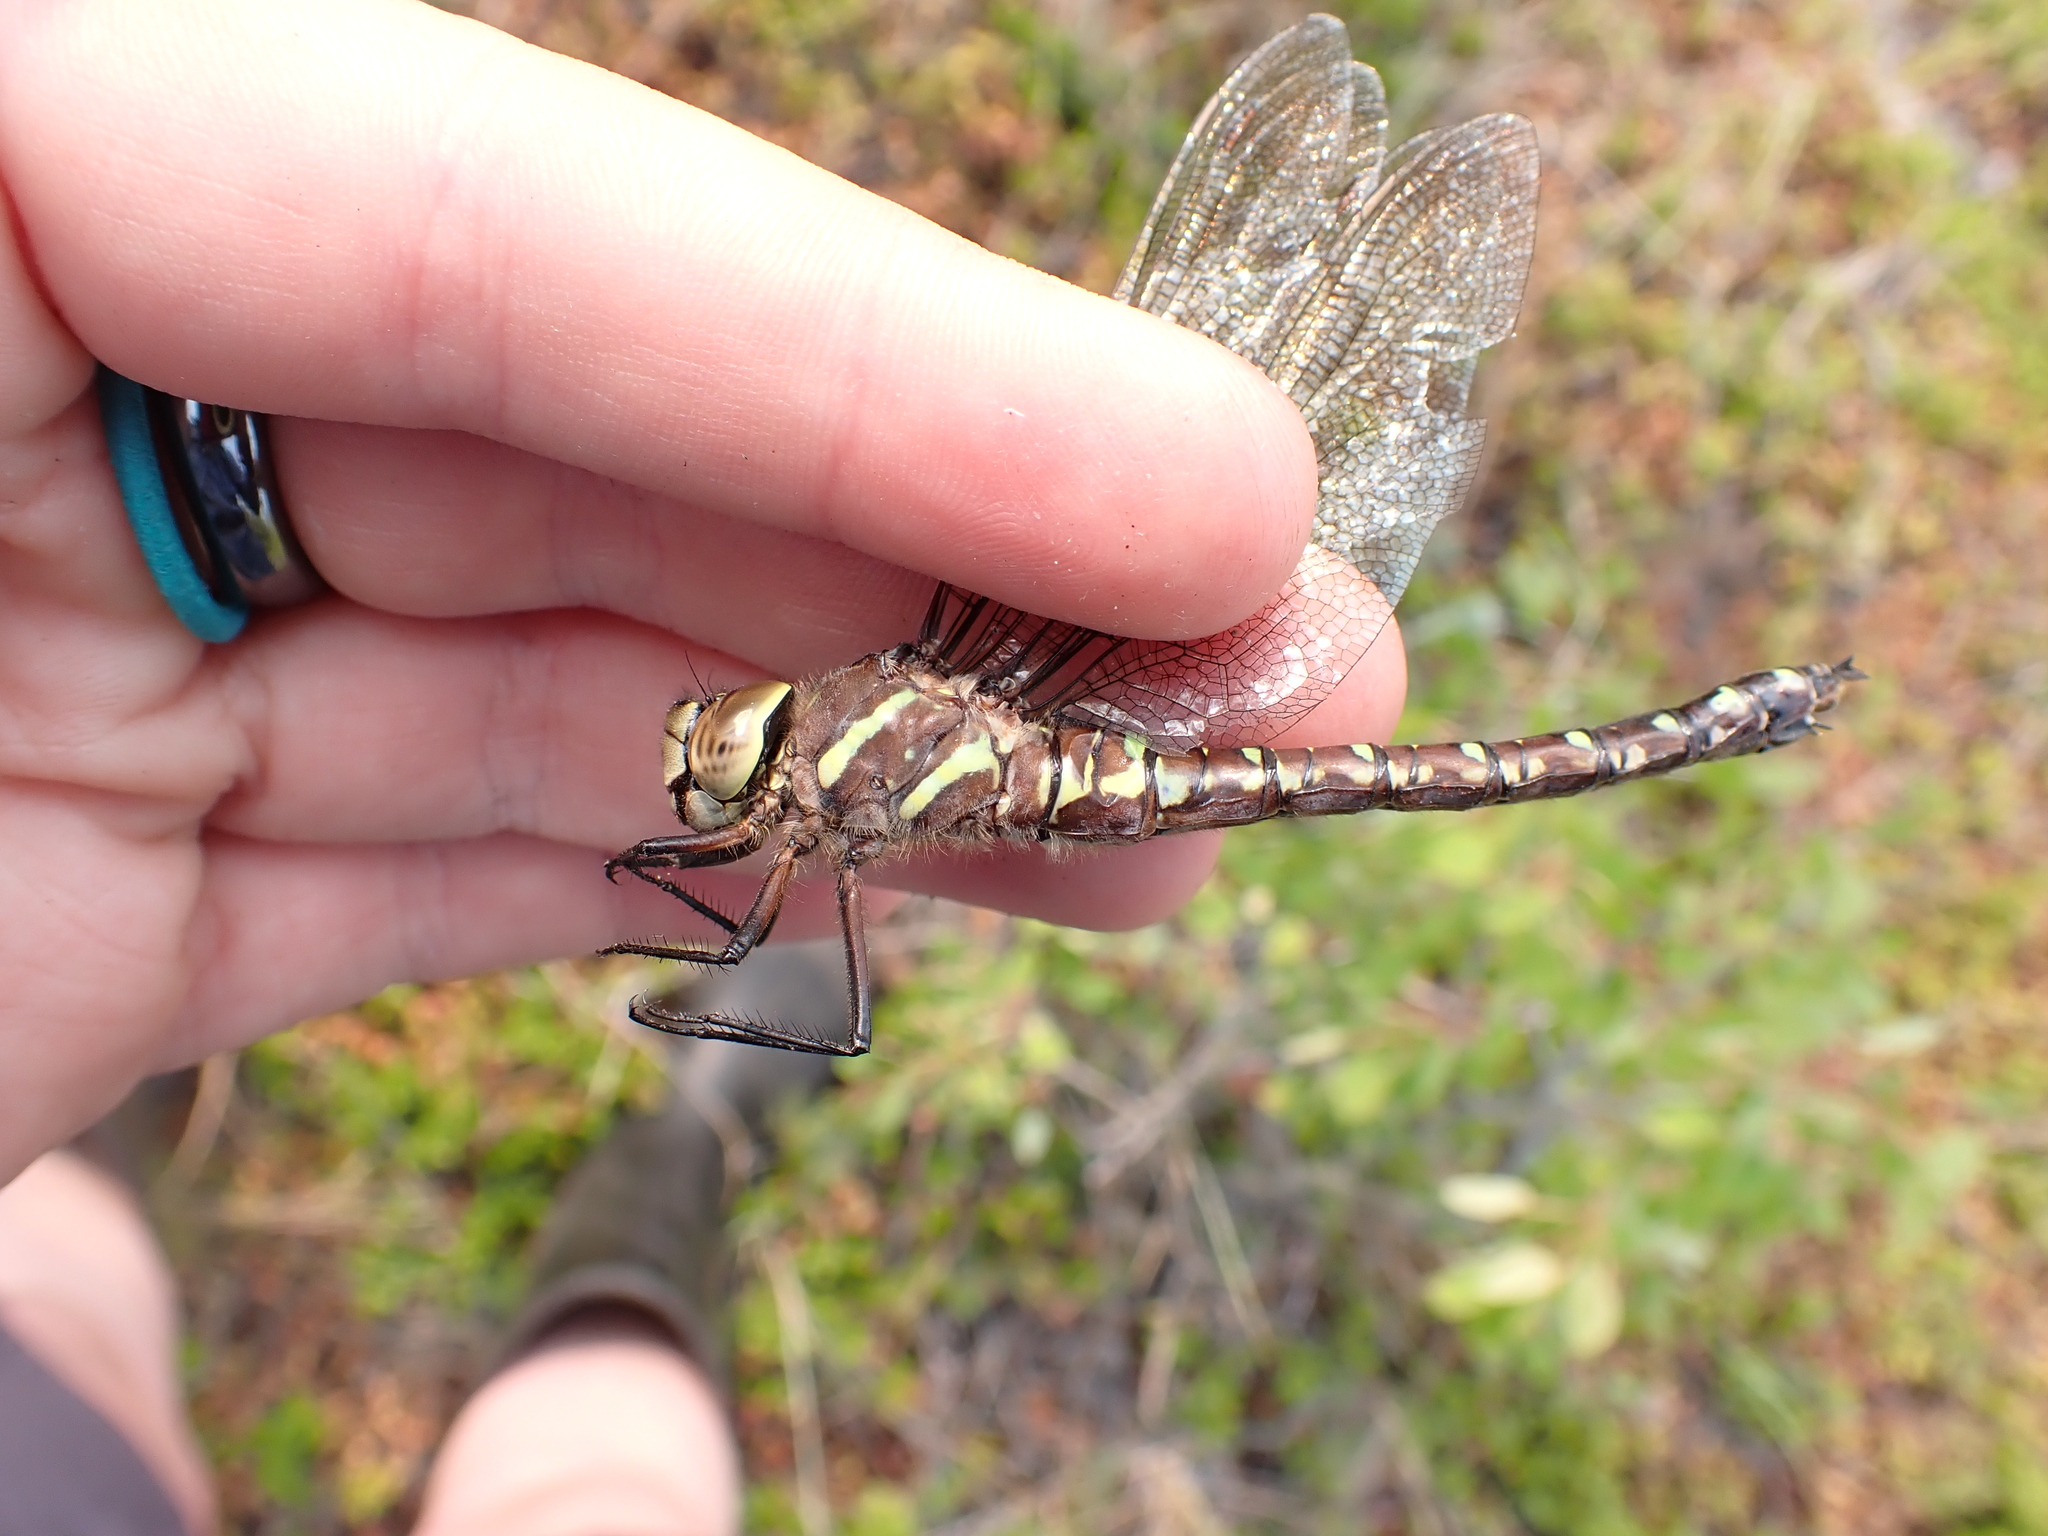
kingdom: Animalia
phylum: Arthropoda
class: Insecta
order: Odonata
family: Aeshnidae
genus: Aeshna
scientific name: Aeshna palmata
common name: Paddle-tailed darner
